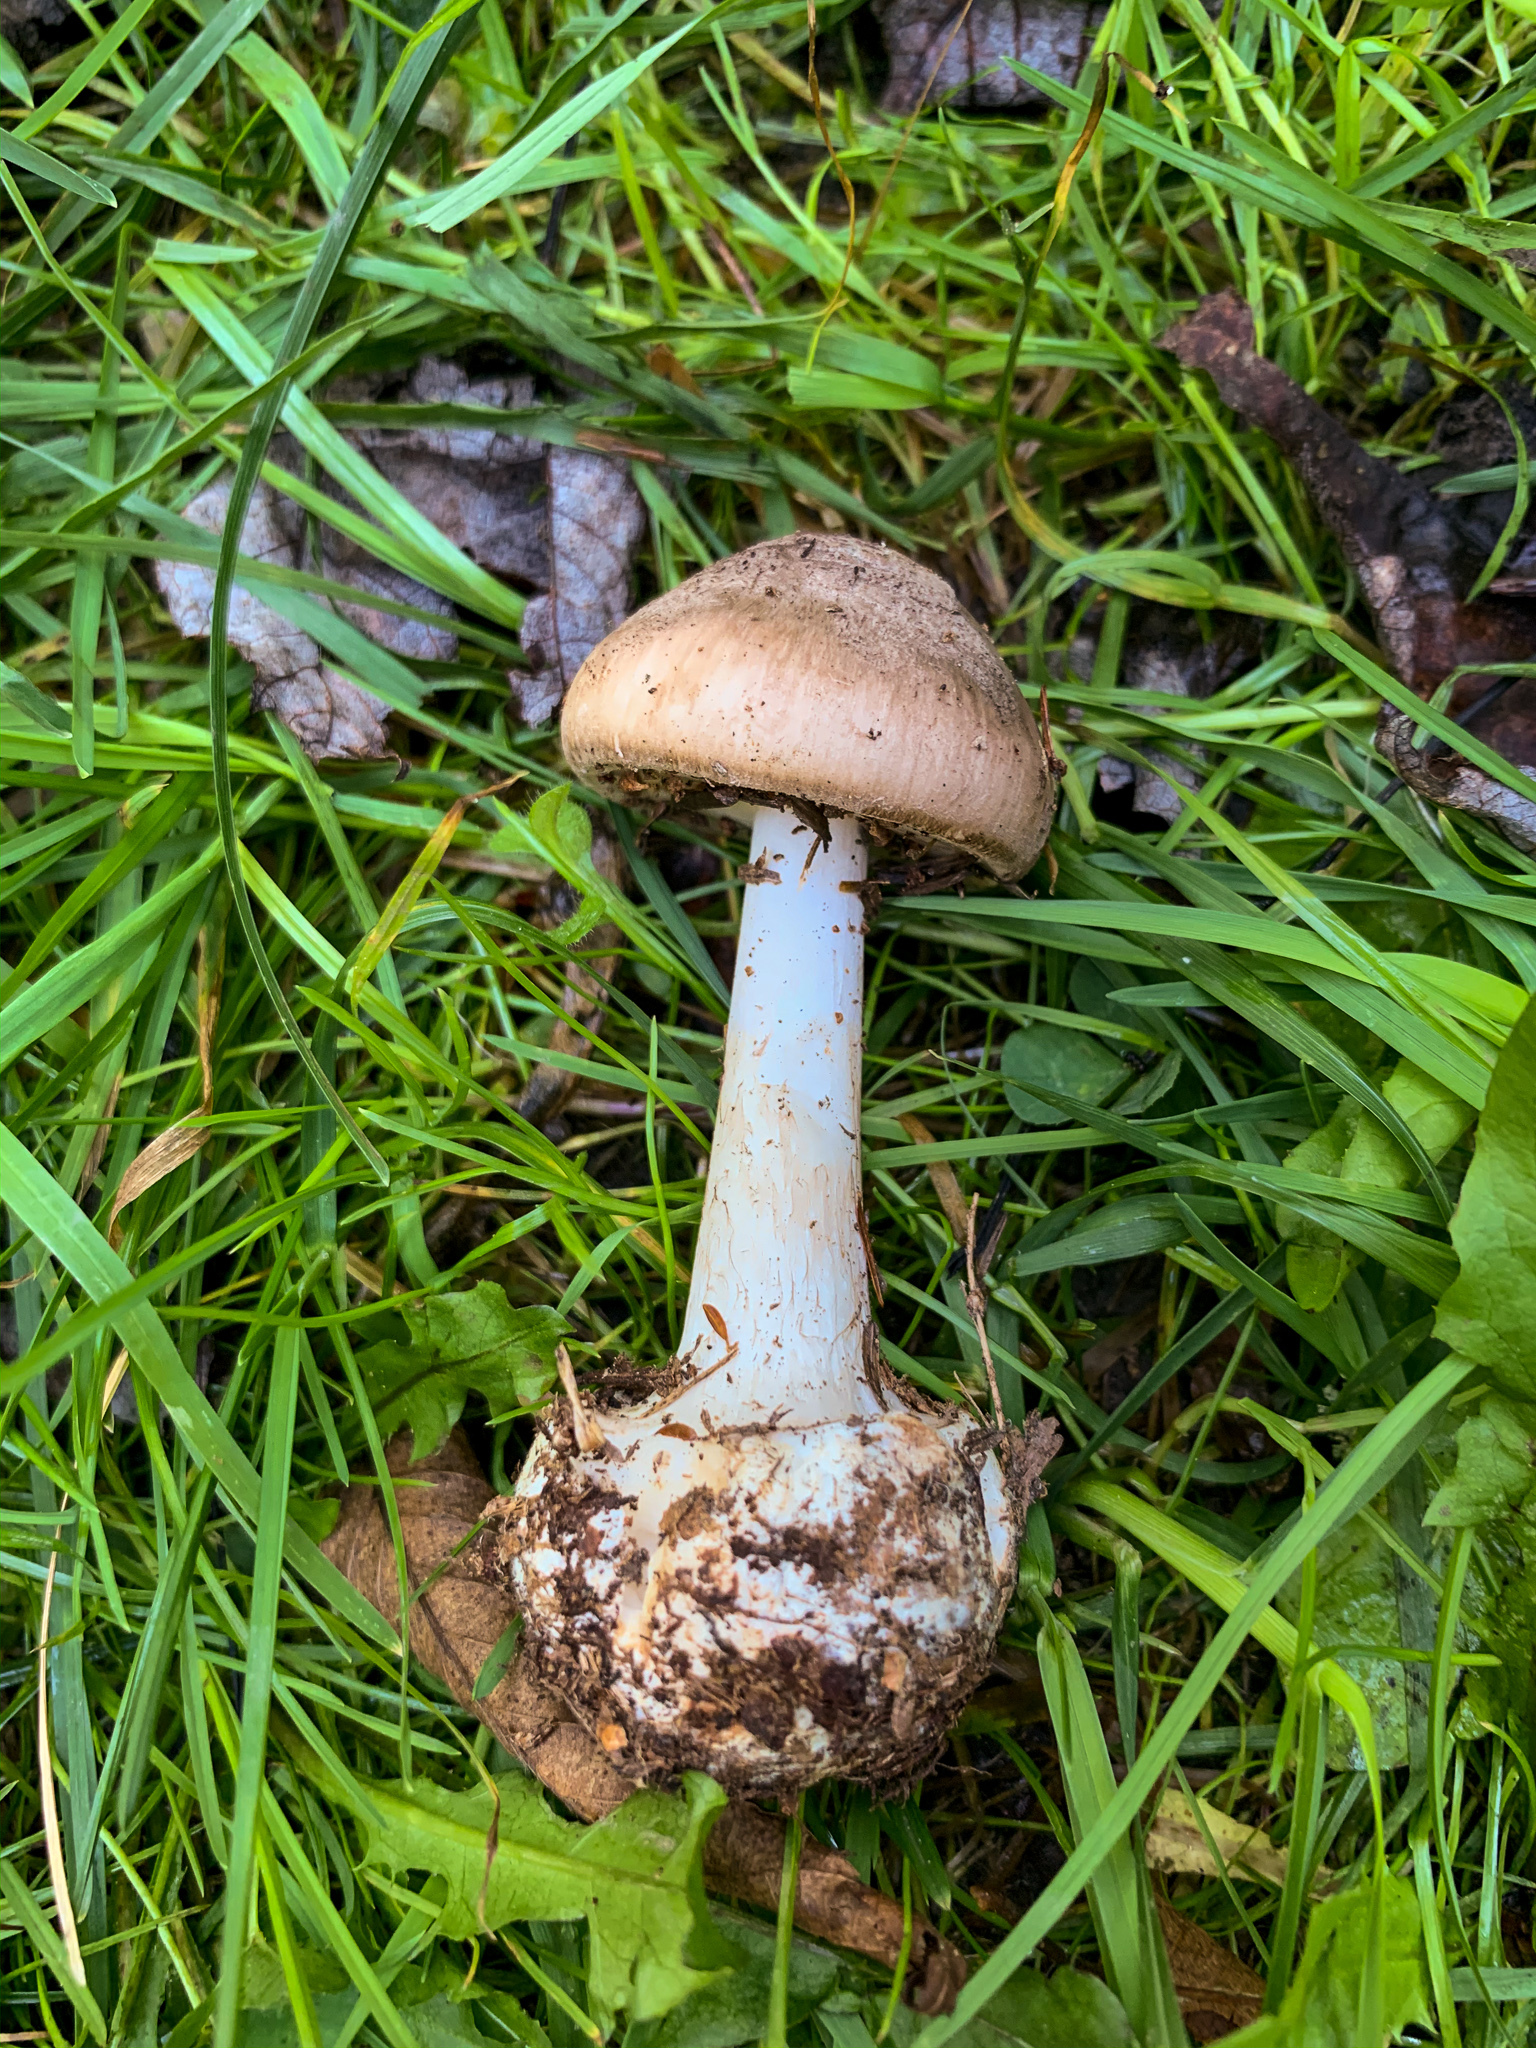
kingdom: Fungi
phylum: Basidiomycota
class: Agaricomycetes
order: Agaricales
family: Amanitaceae
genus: Amanita
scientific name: Amanita porphyria
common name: Grey veiled amanita
